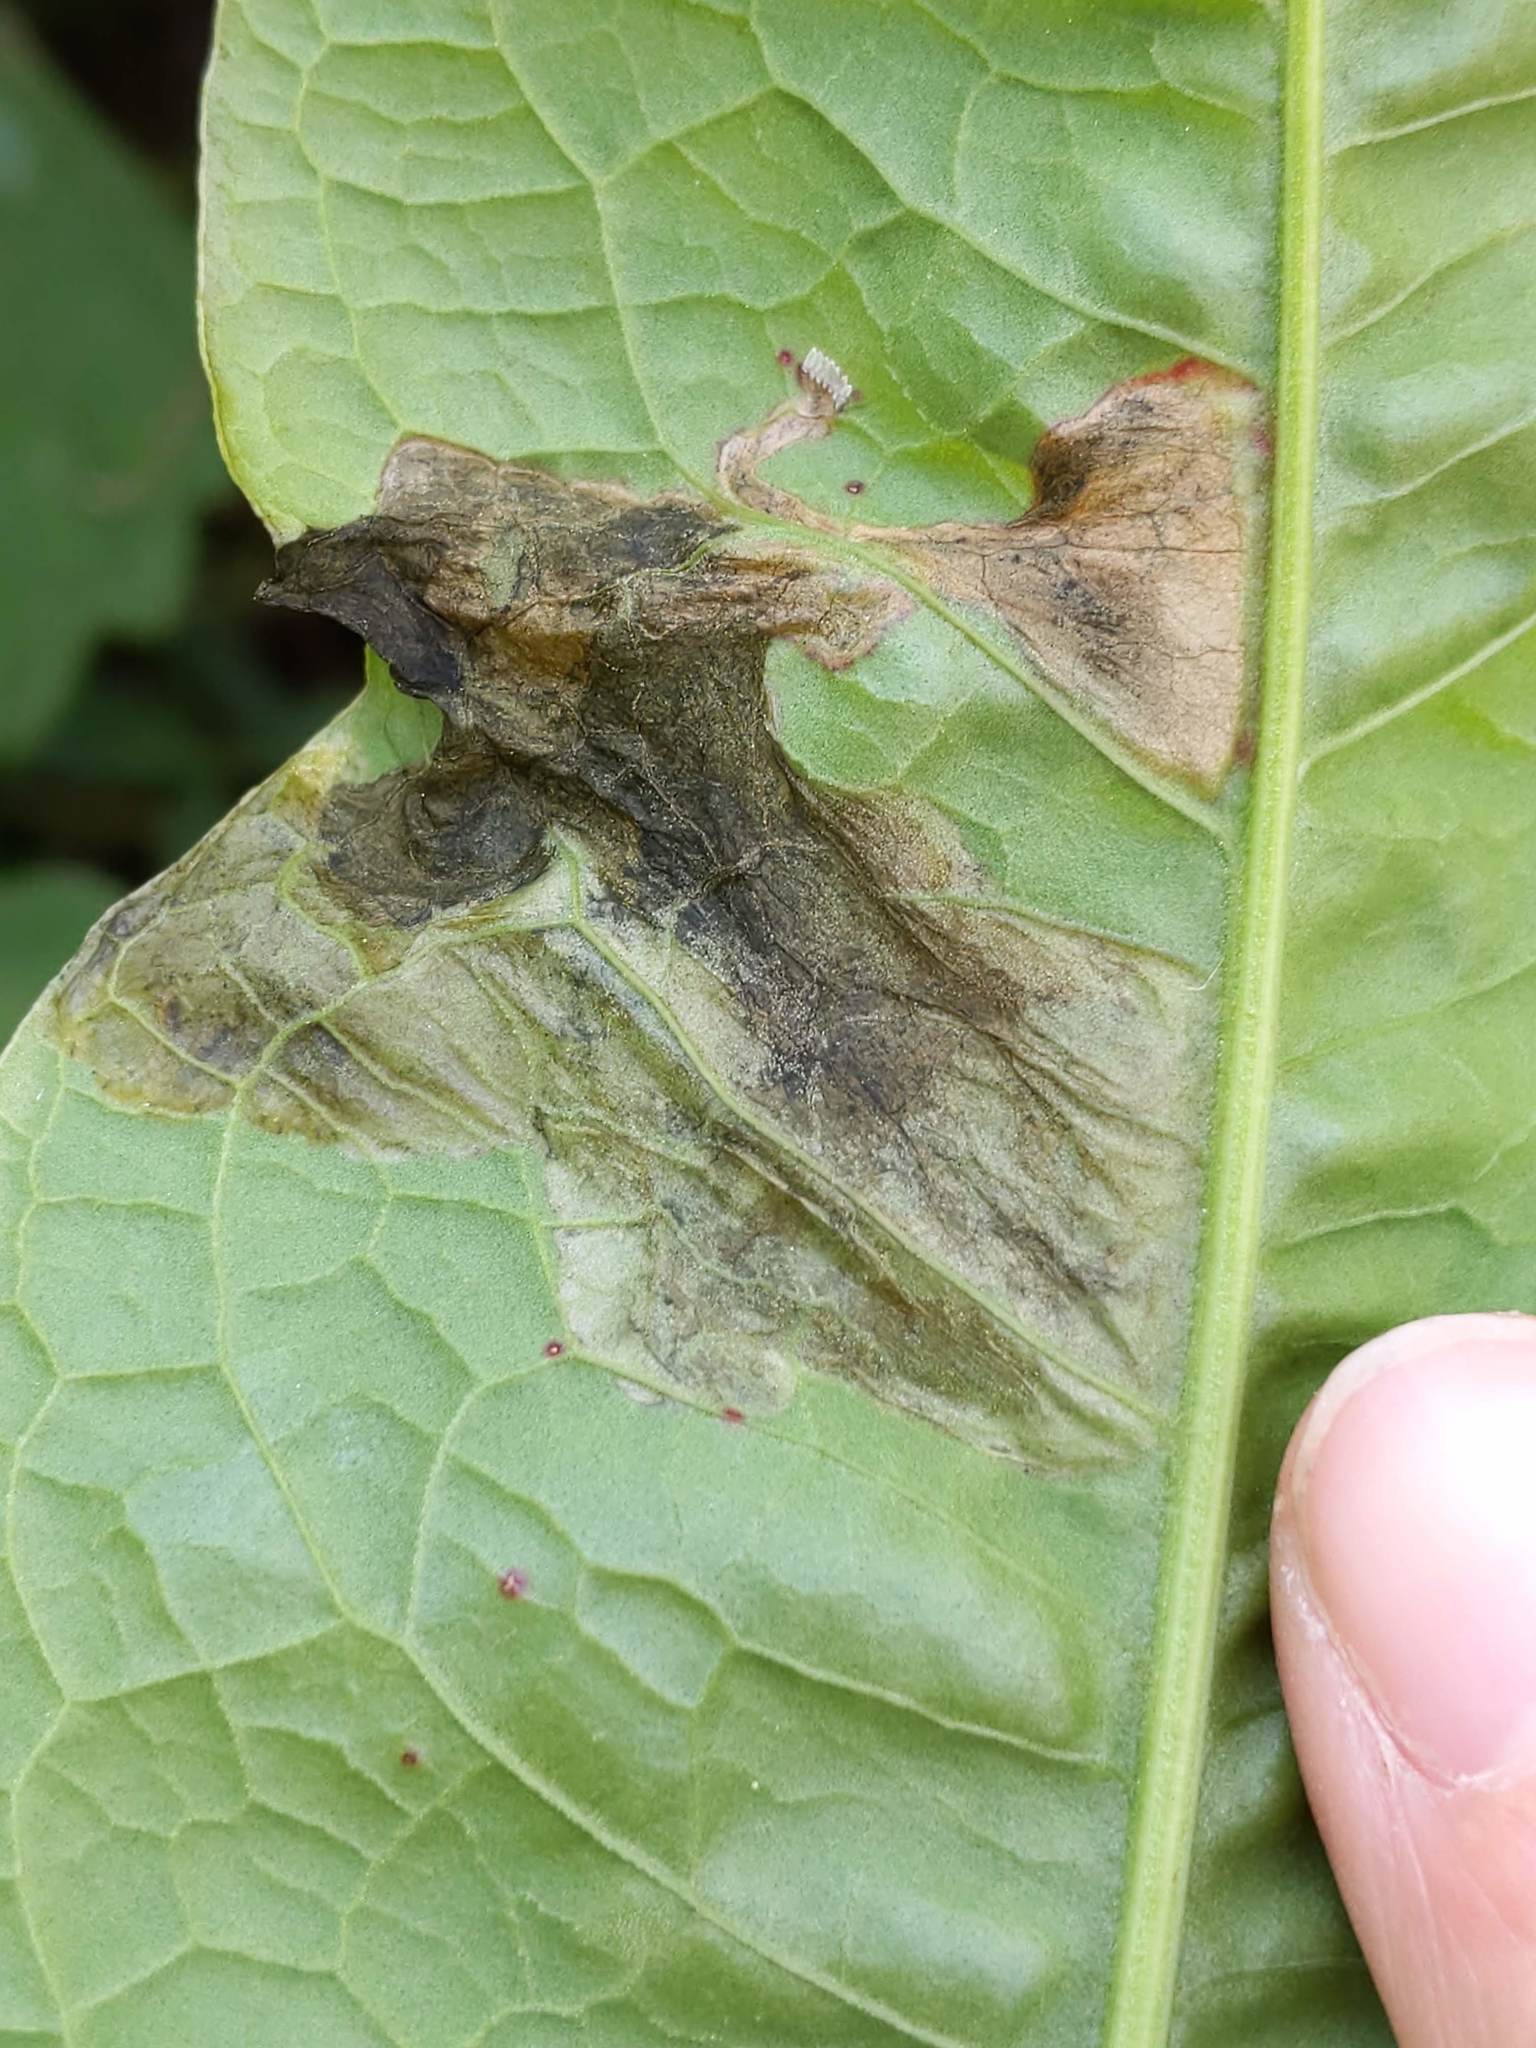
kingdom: Animalia
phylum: Arthropoda
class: Insecta
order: Diptera
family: Anthomyiidae
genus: Pegomya
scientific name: Pegomya bicolor
